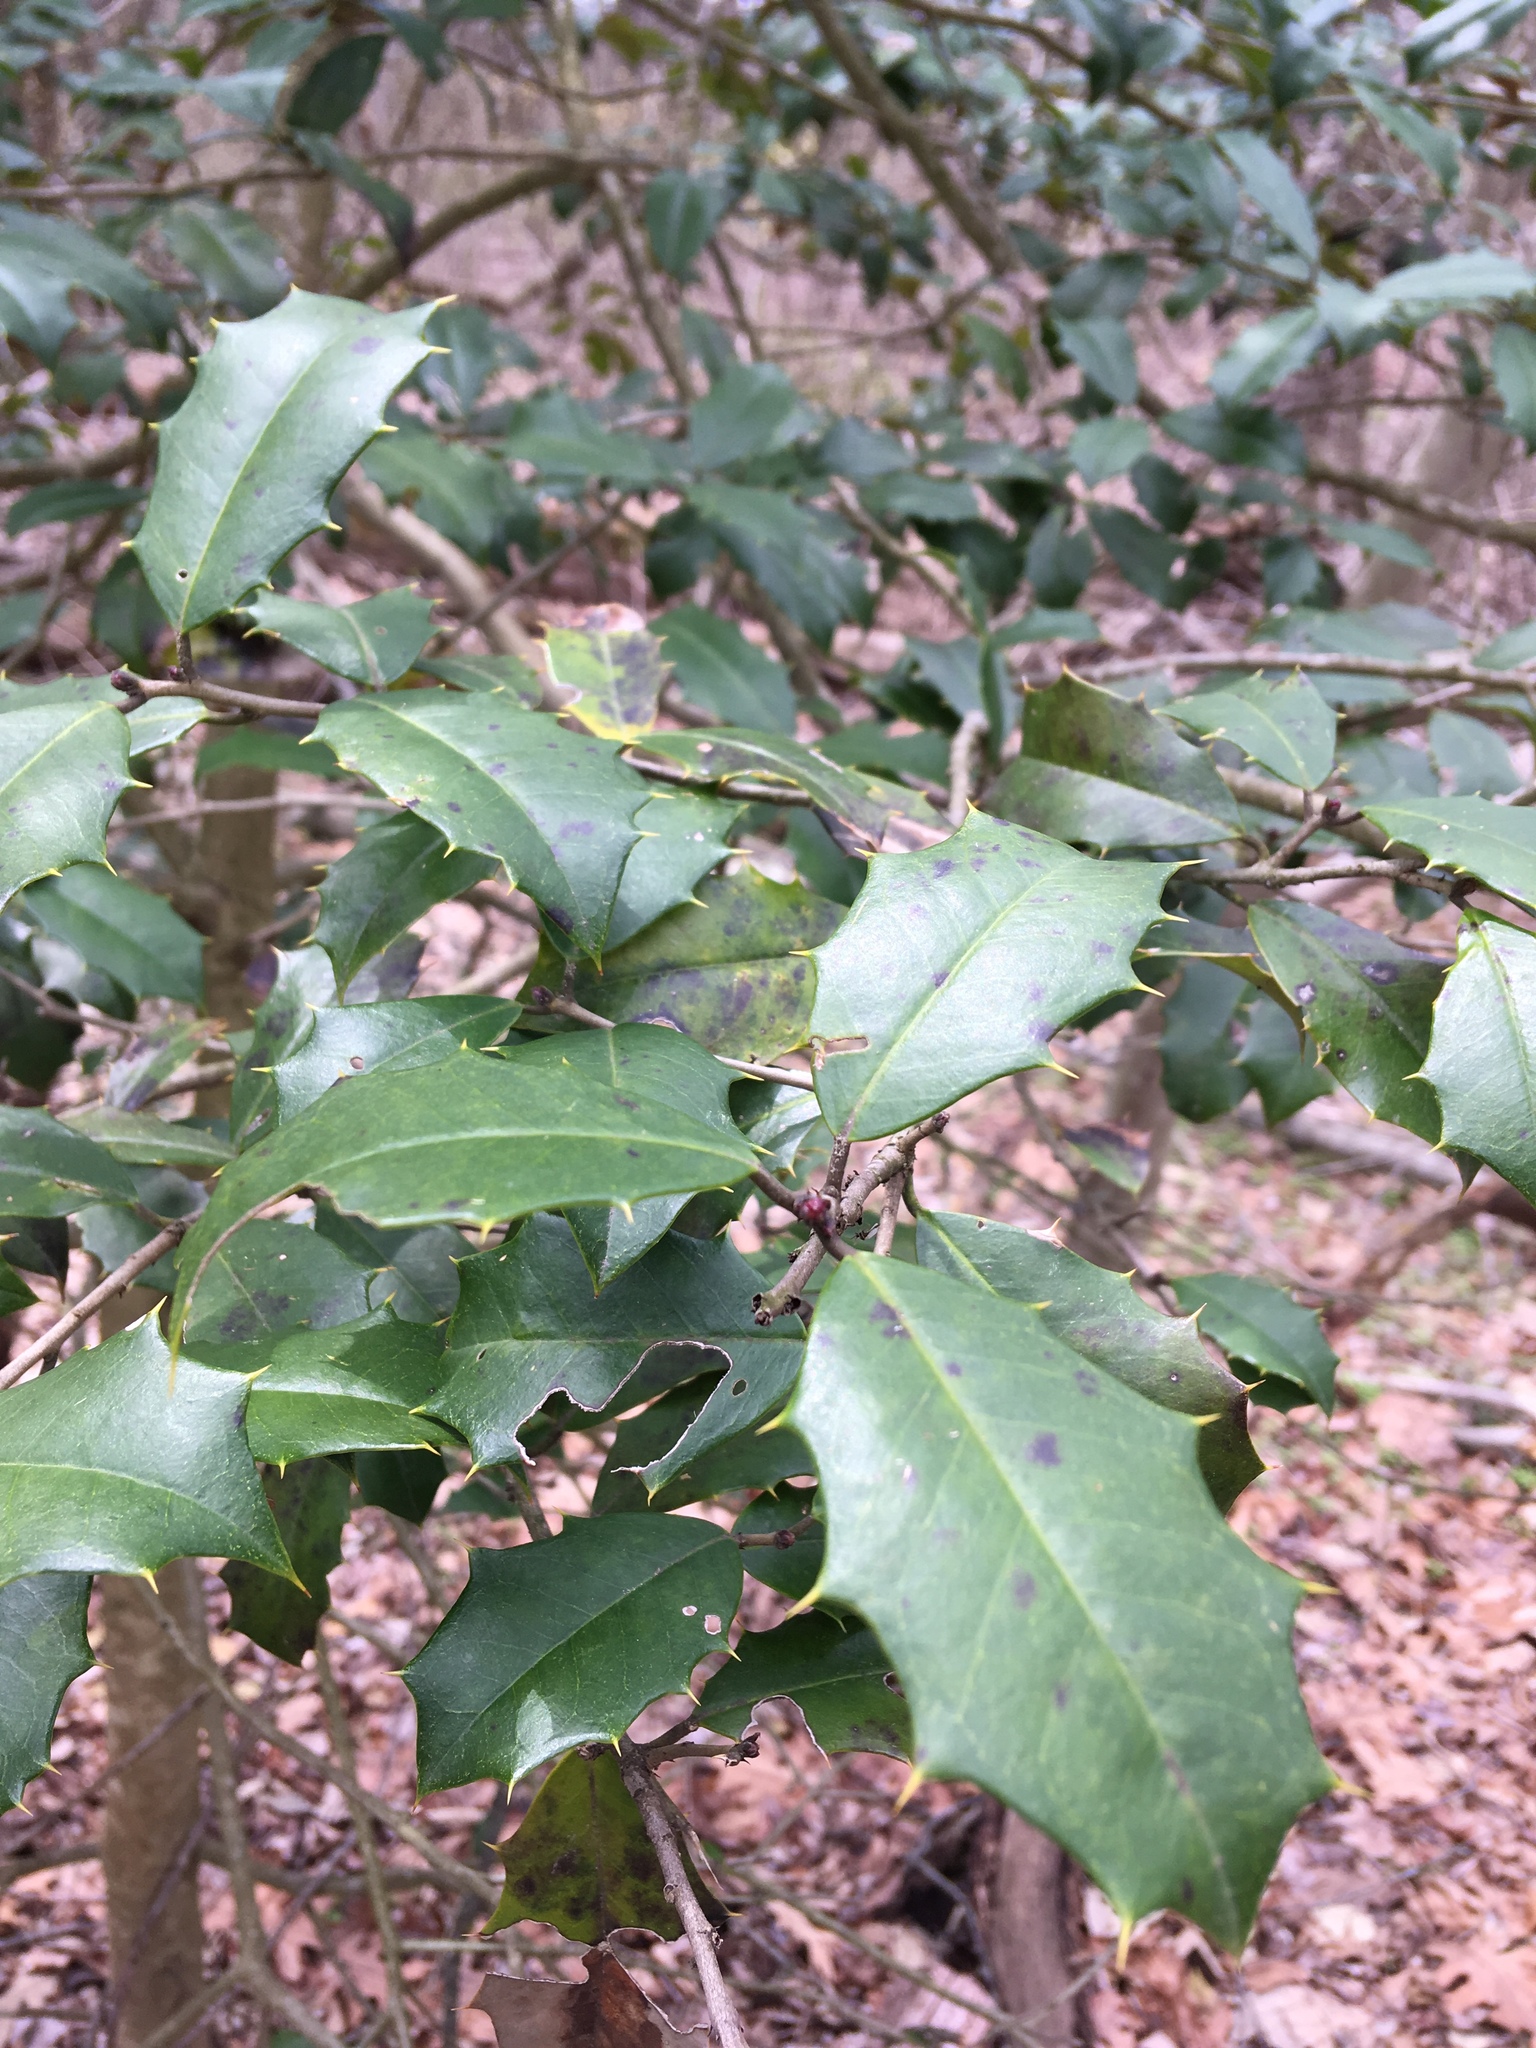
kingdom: Plantae
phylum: Tracheophyta
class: Magnoliopsida
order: Aquifoliales
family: Aquifoliaceae
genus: Ilex
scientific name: Ilex opaca
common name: American holly
